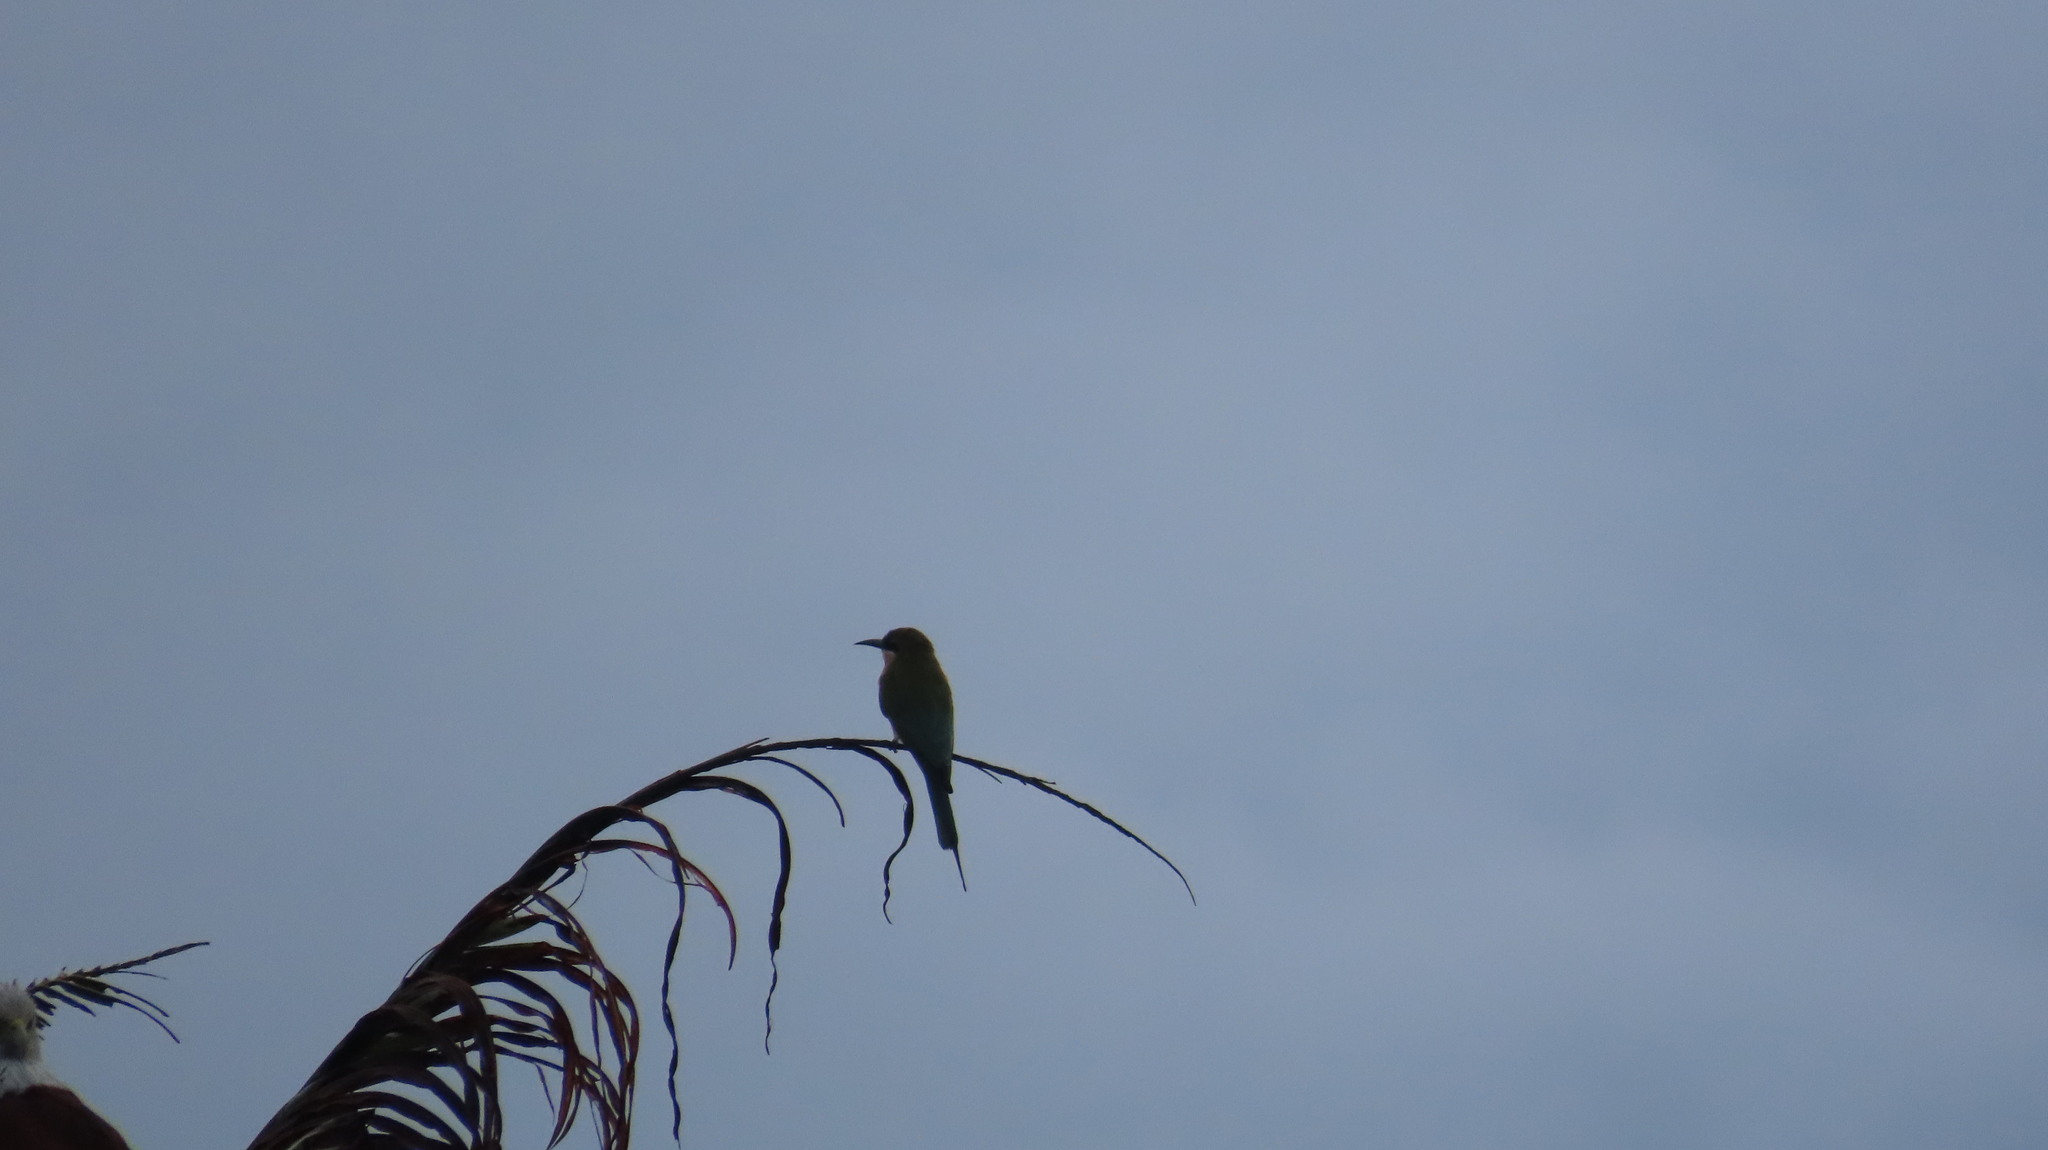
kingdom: Animalia
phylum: Chordata
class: Aves
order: Coraciiformes
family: Meropidae
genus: Merops
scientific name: Merops philippinus
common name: Blue-tailed bee-eater
